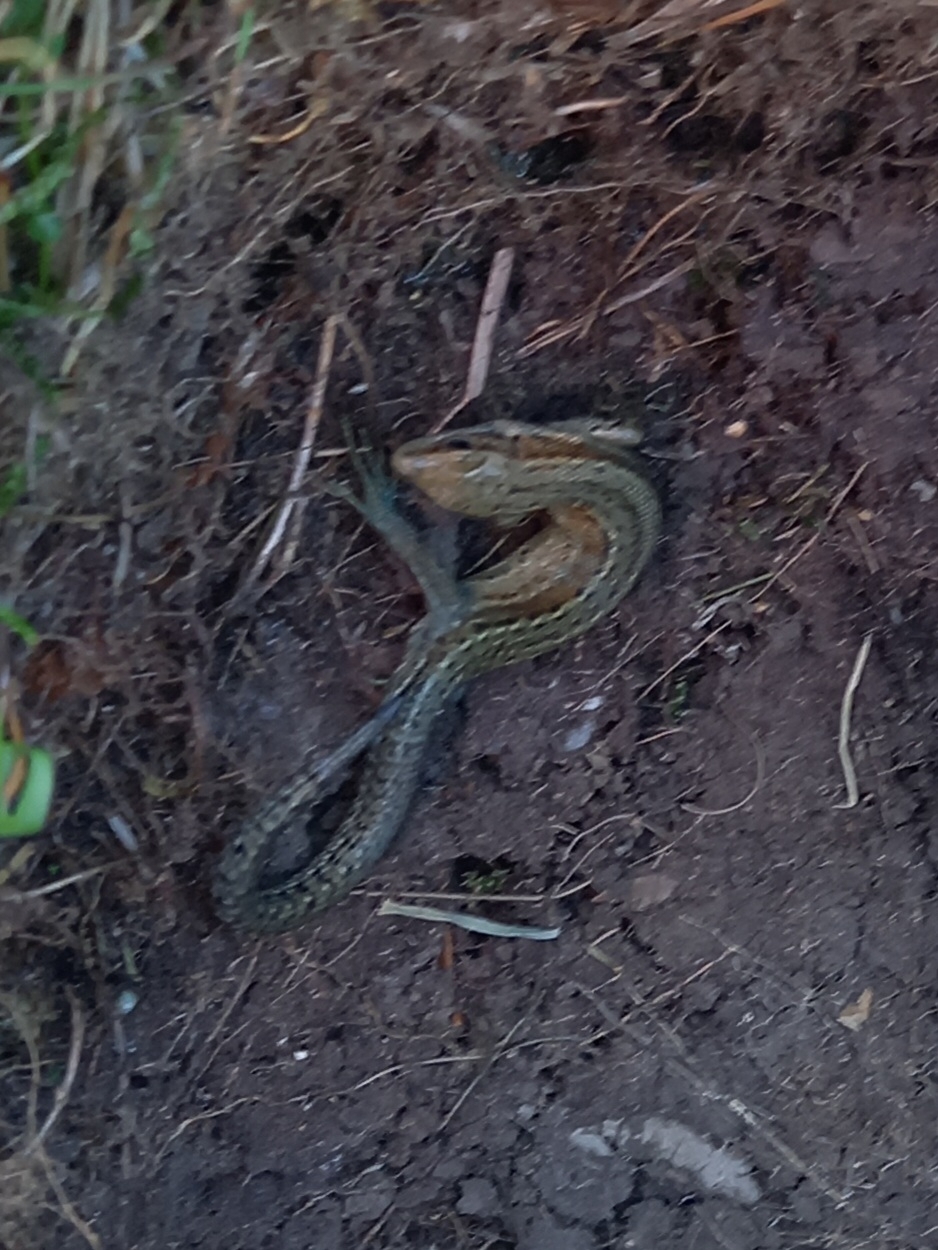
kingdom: Animalia
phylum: Chordata
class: Squamata
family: Lacertidae
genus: Zootoca
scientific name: Zootoca vivipara
